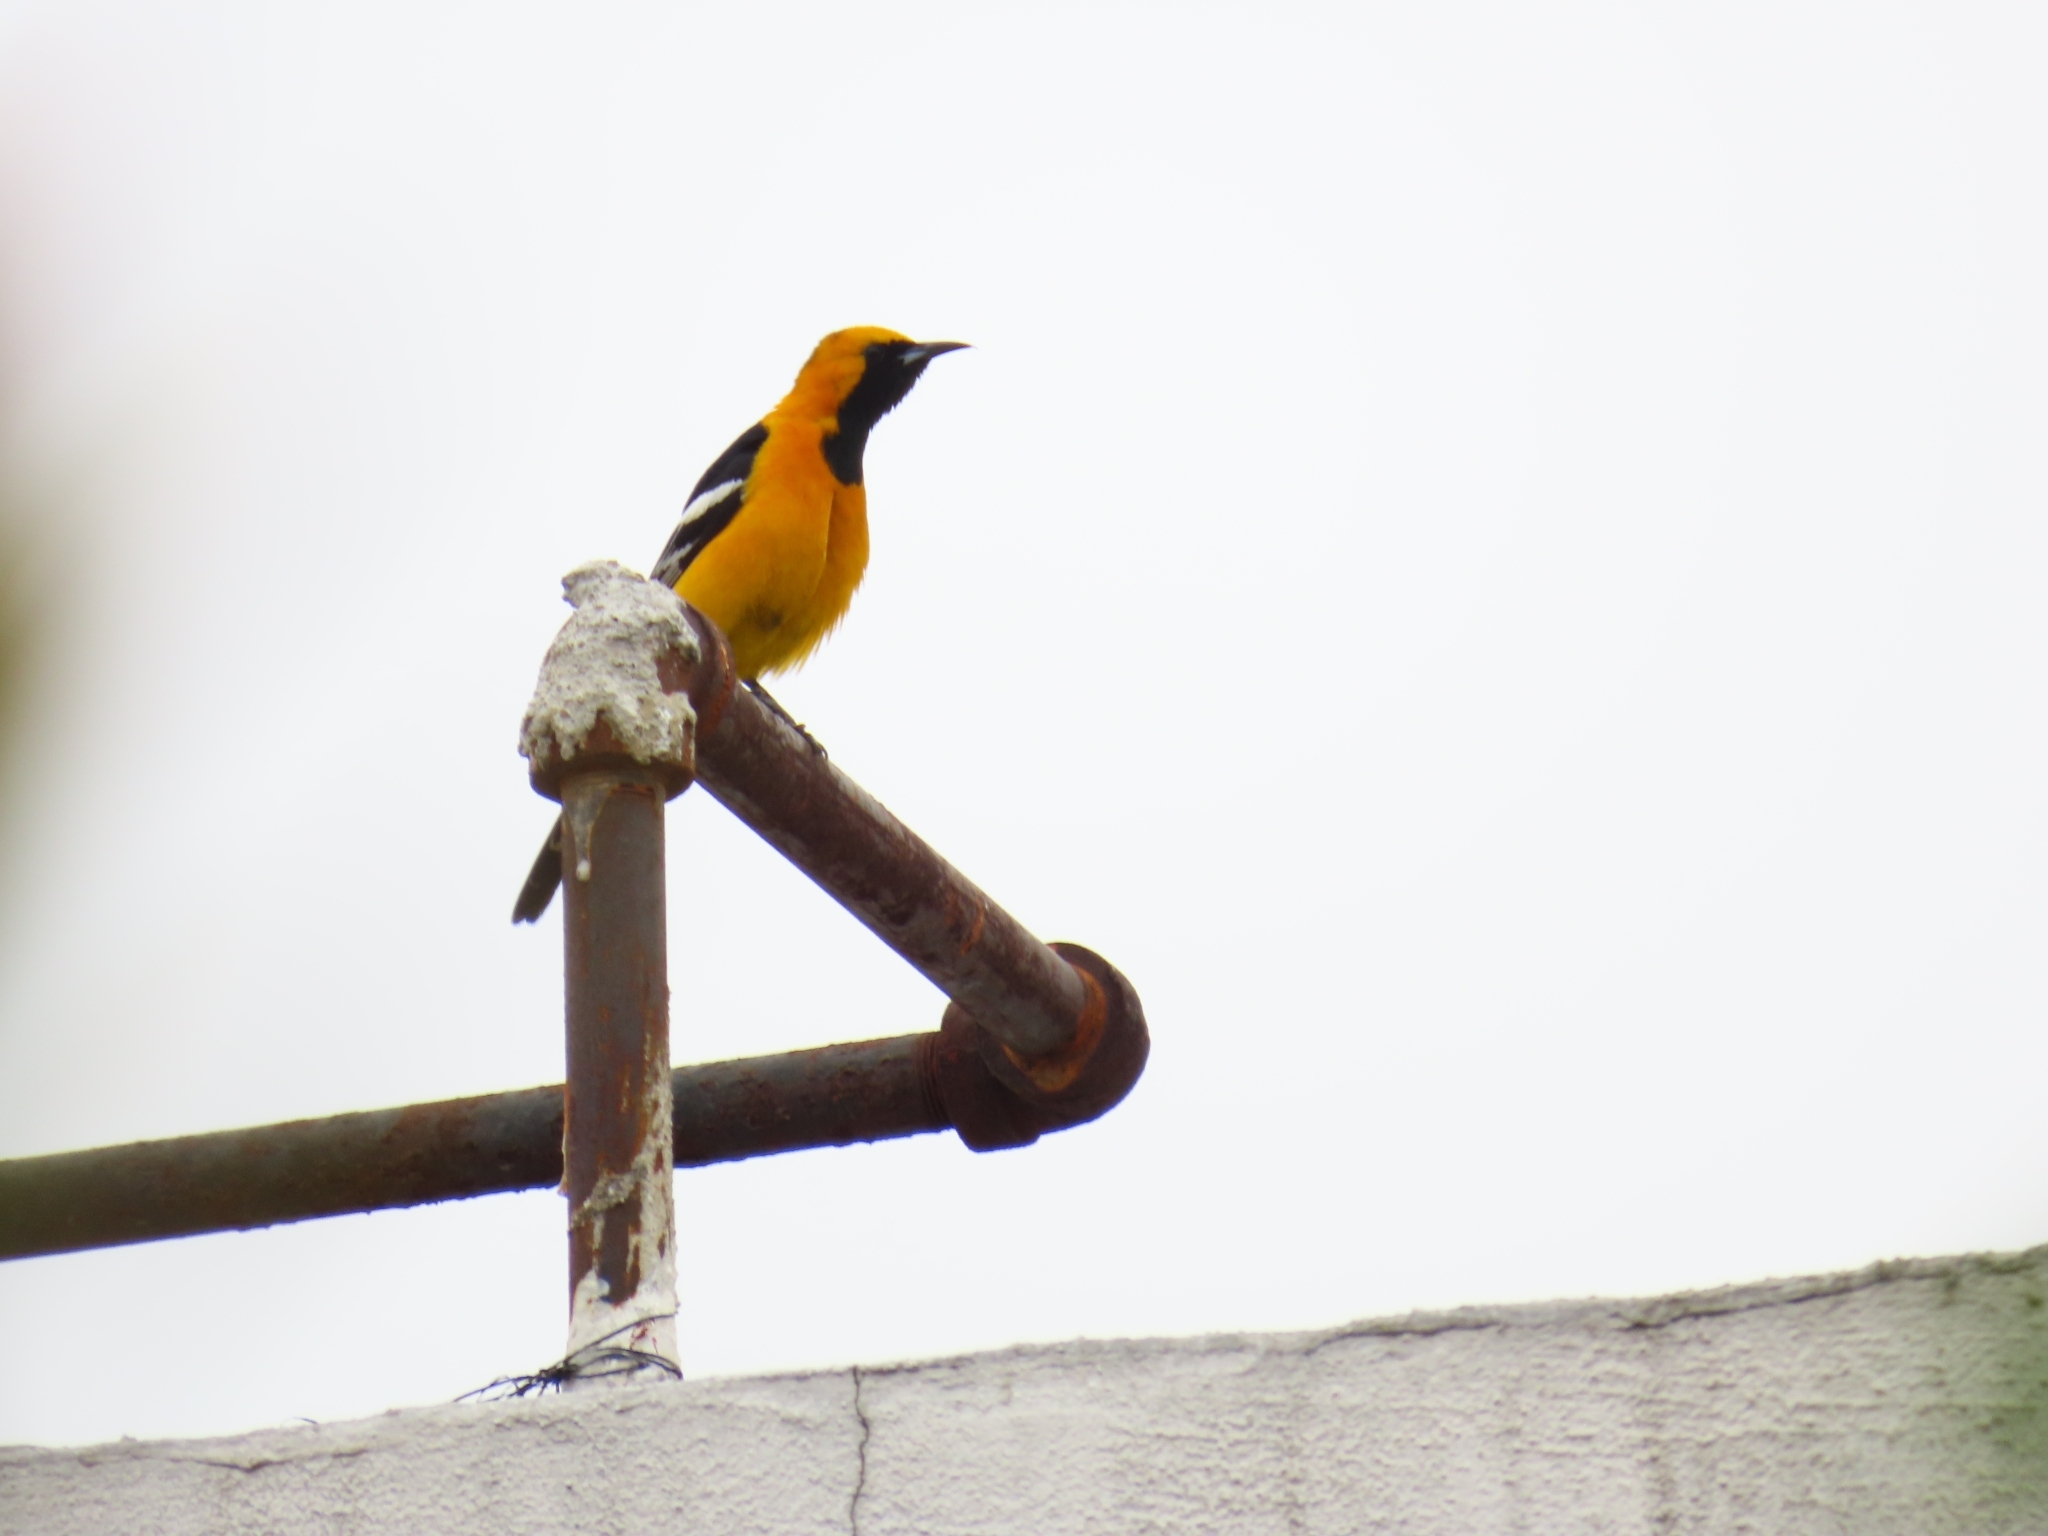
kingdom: Animalia
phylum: Chordata
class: Aves
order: Passeriformes
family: Icteridae
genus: Icterus
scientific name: Icterus cucullatus
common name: Hooded oriole
